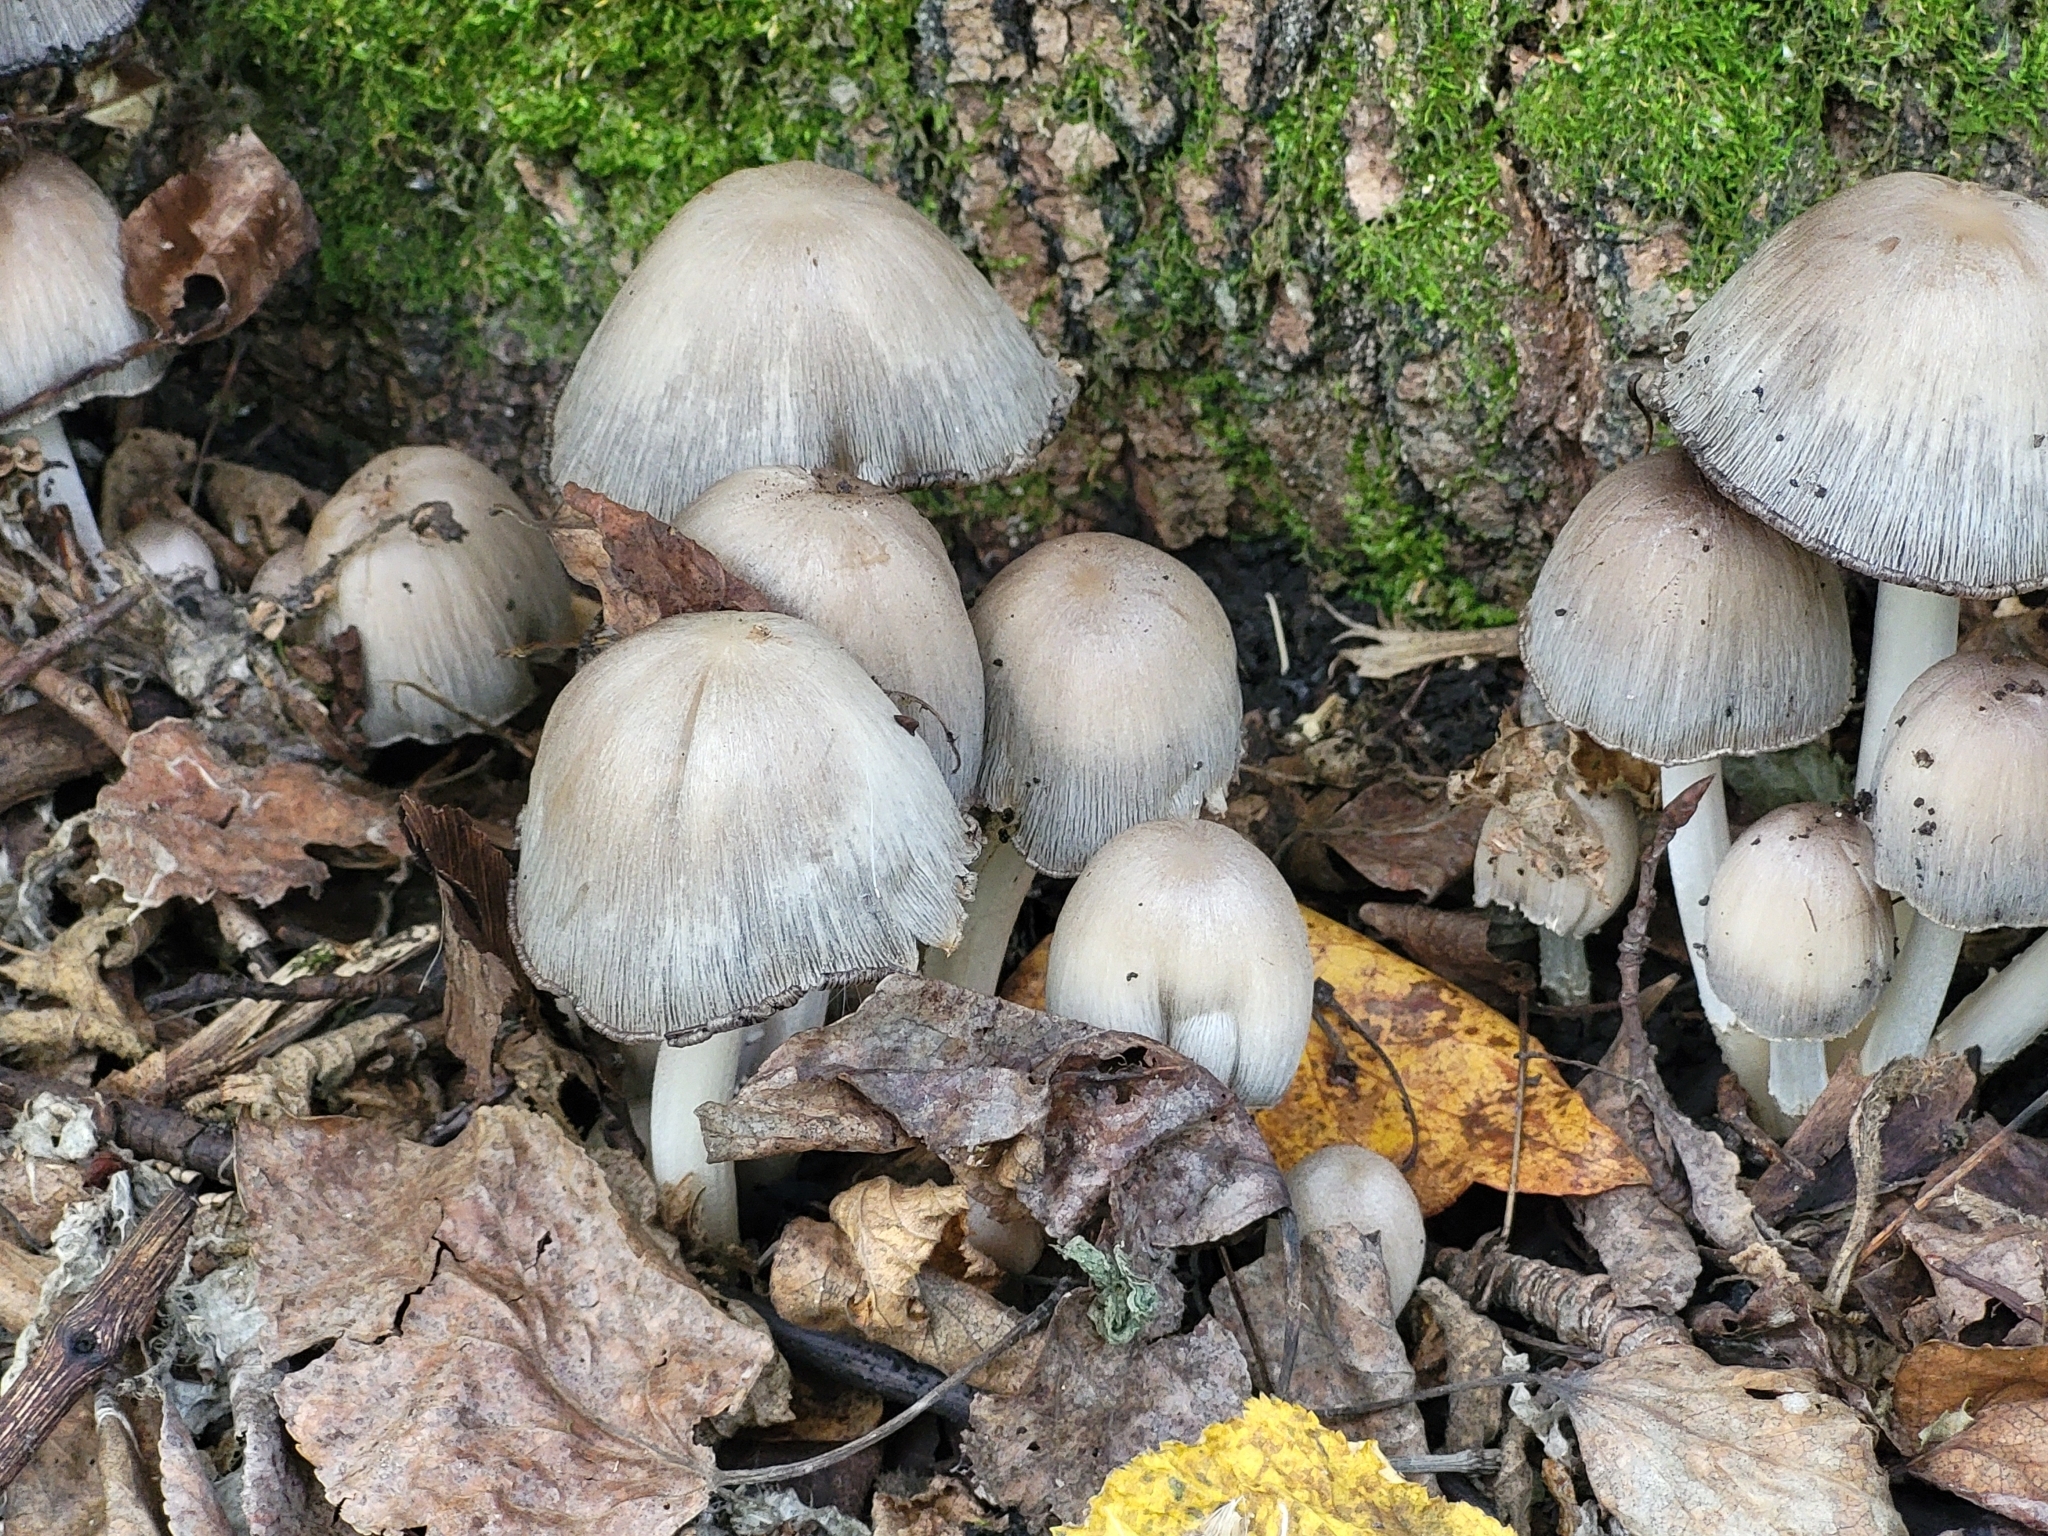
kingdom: Fungi
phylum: Basidiomycota
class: Agaricomycetes
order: Agaricales
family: Psathyrellaceae
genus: Coprinopsis
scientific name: Coprinopsis atramentaria
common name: Common ink-cap
